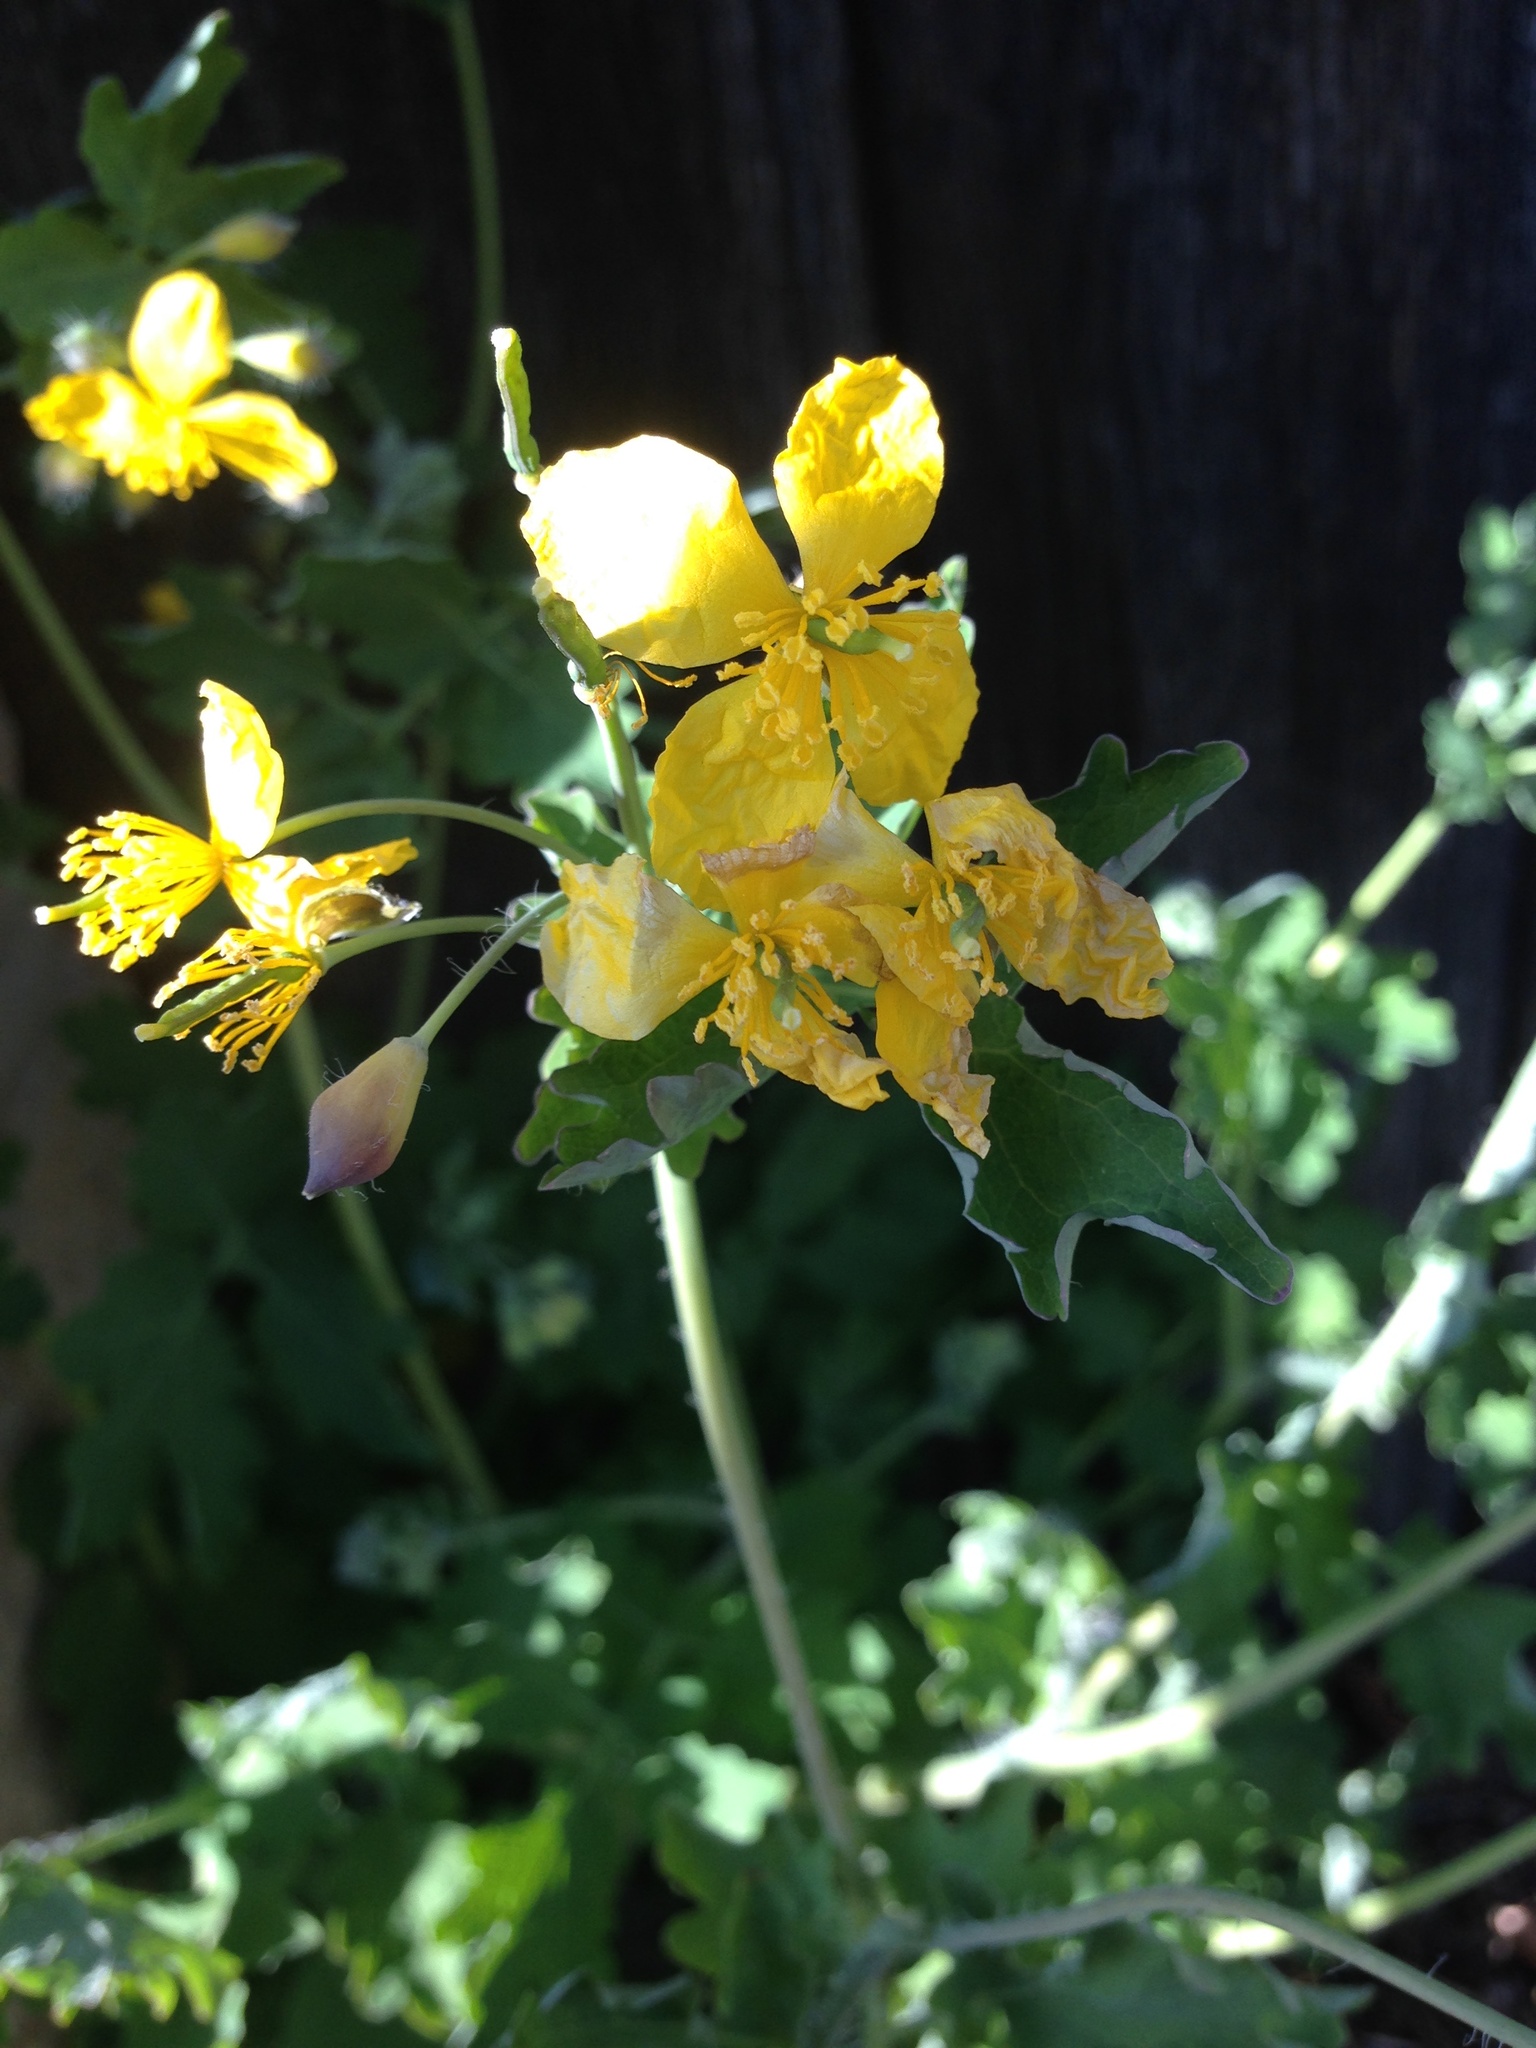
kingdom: Plantae
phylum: Tracheophyta
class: Magnoliopsida
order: Ranunculales
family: Papaveraceae
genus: Chelidonium
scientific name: Chelidonium majus
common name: Greater celandine
